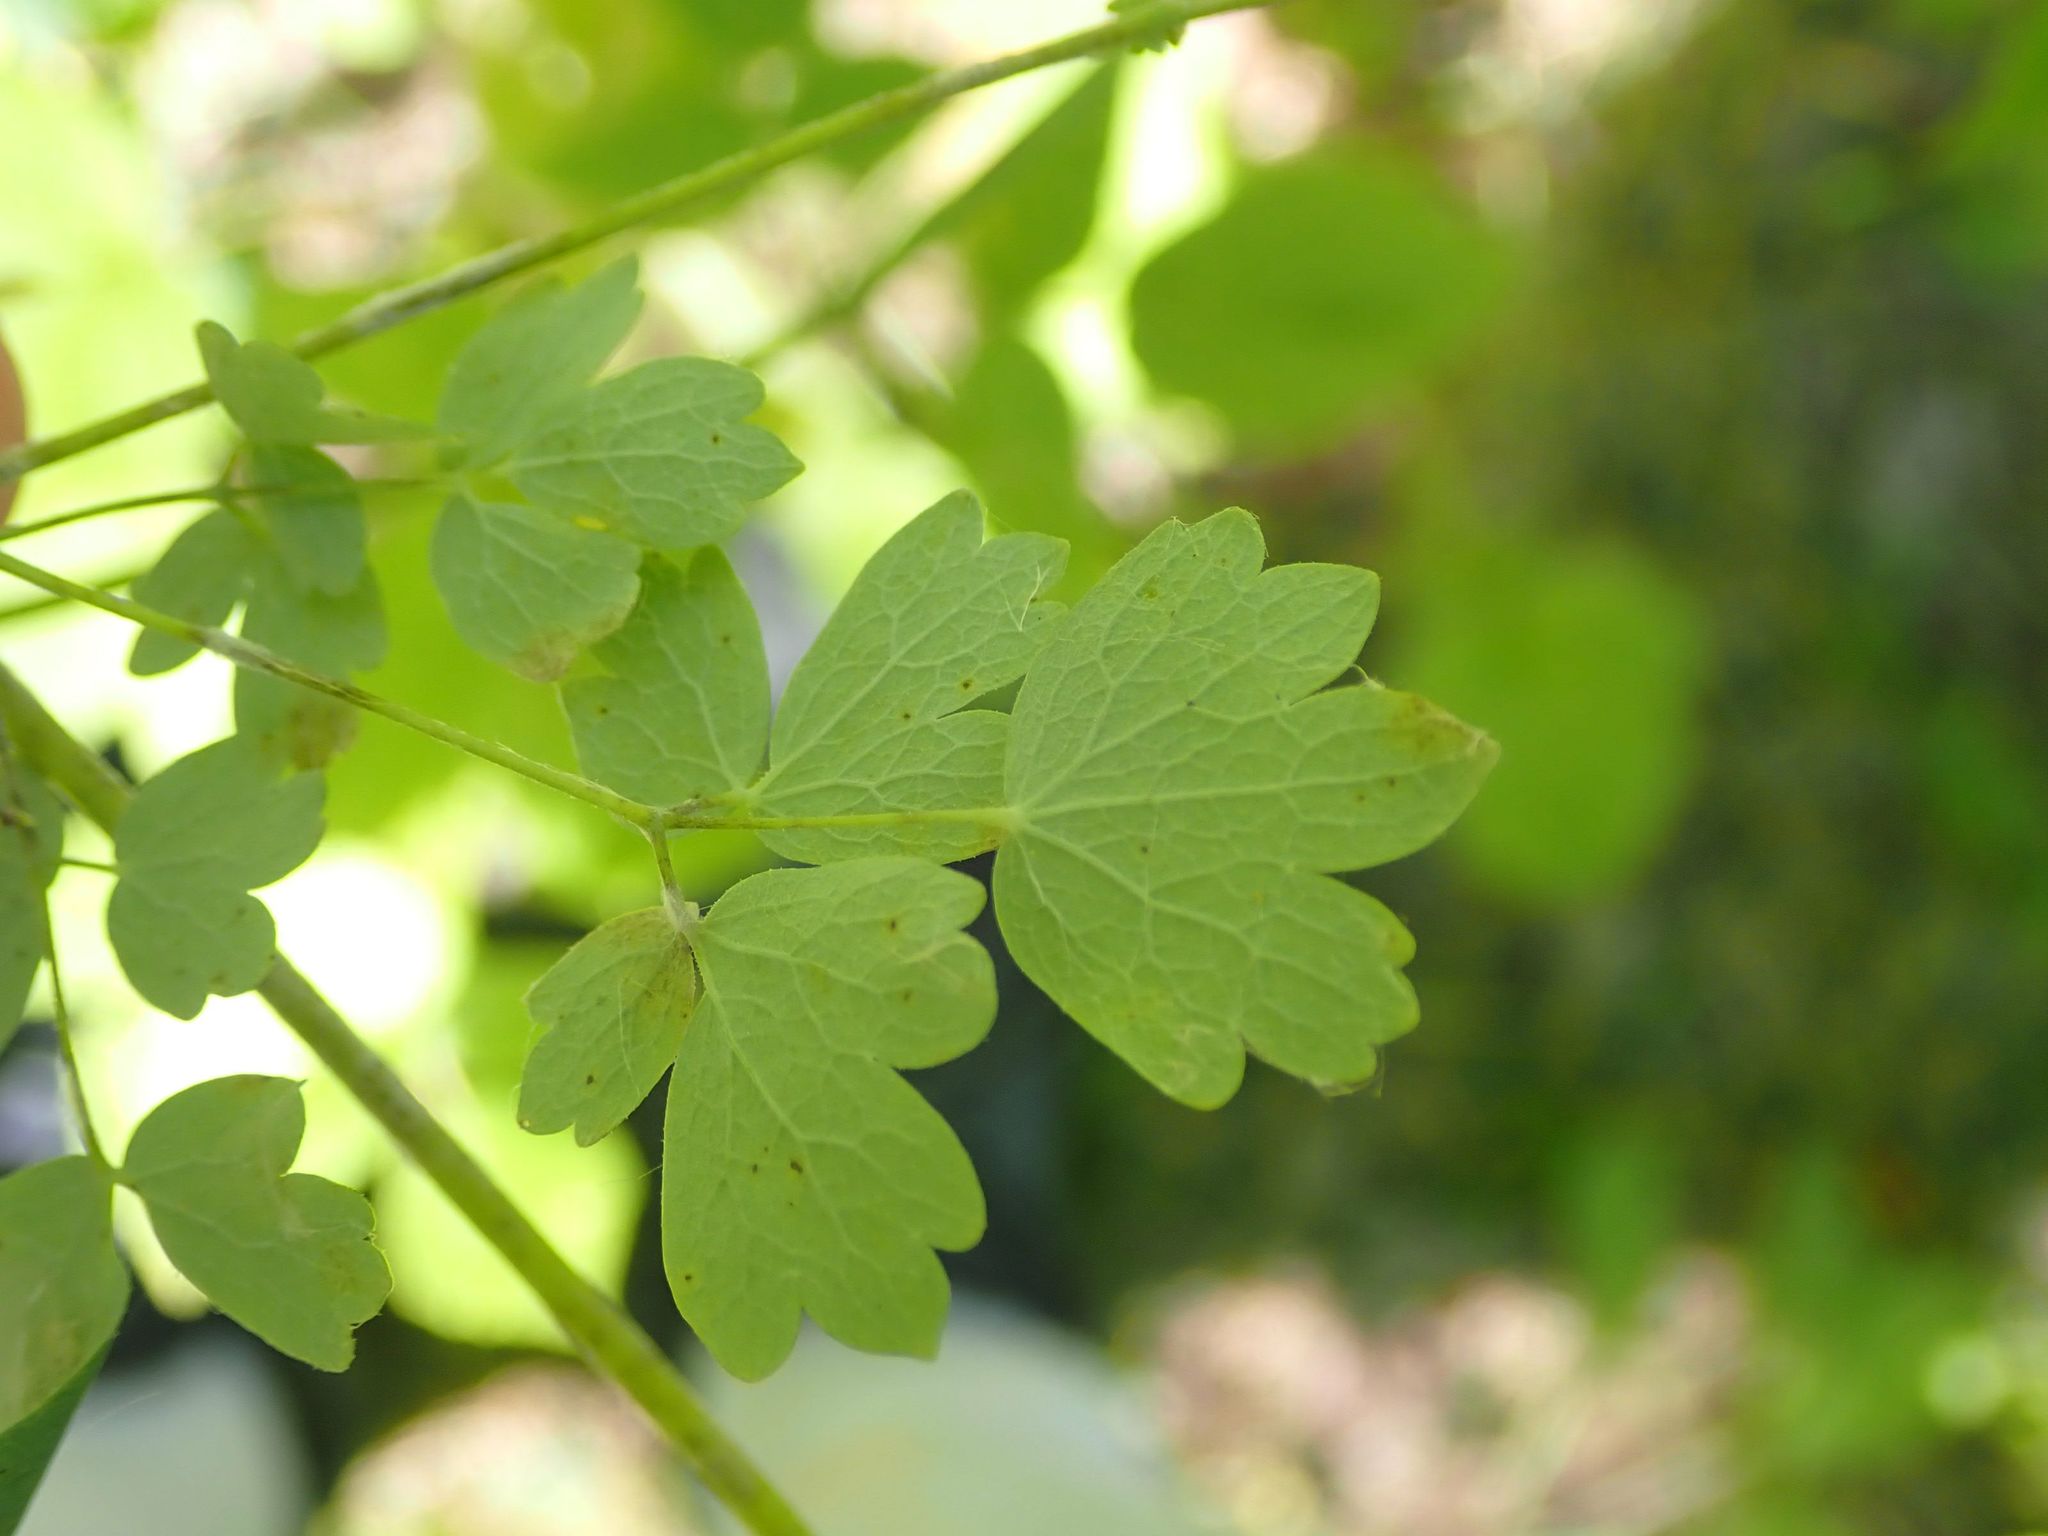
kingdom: Plantae
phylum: Tracheophyta
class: Magnoliopsida
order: Ranunculales
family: Ranunculaceae
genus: Thalictrum
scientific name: Thalictrum venulosum
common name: Early meadow-rue
